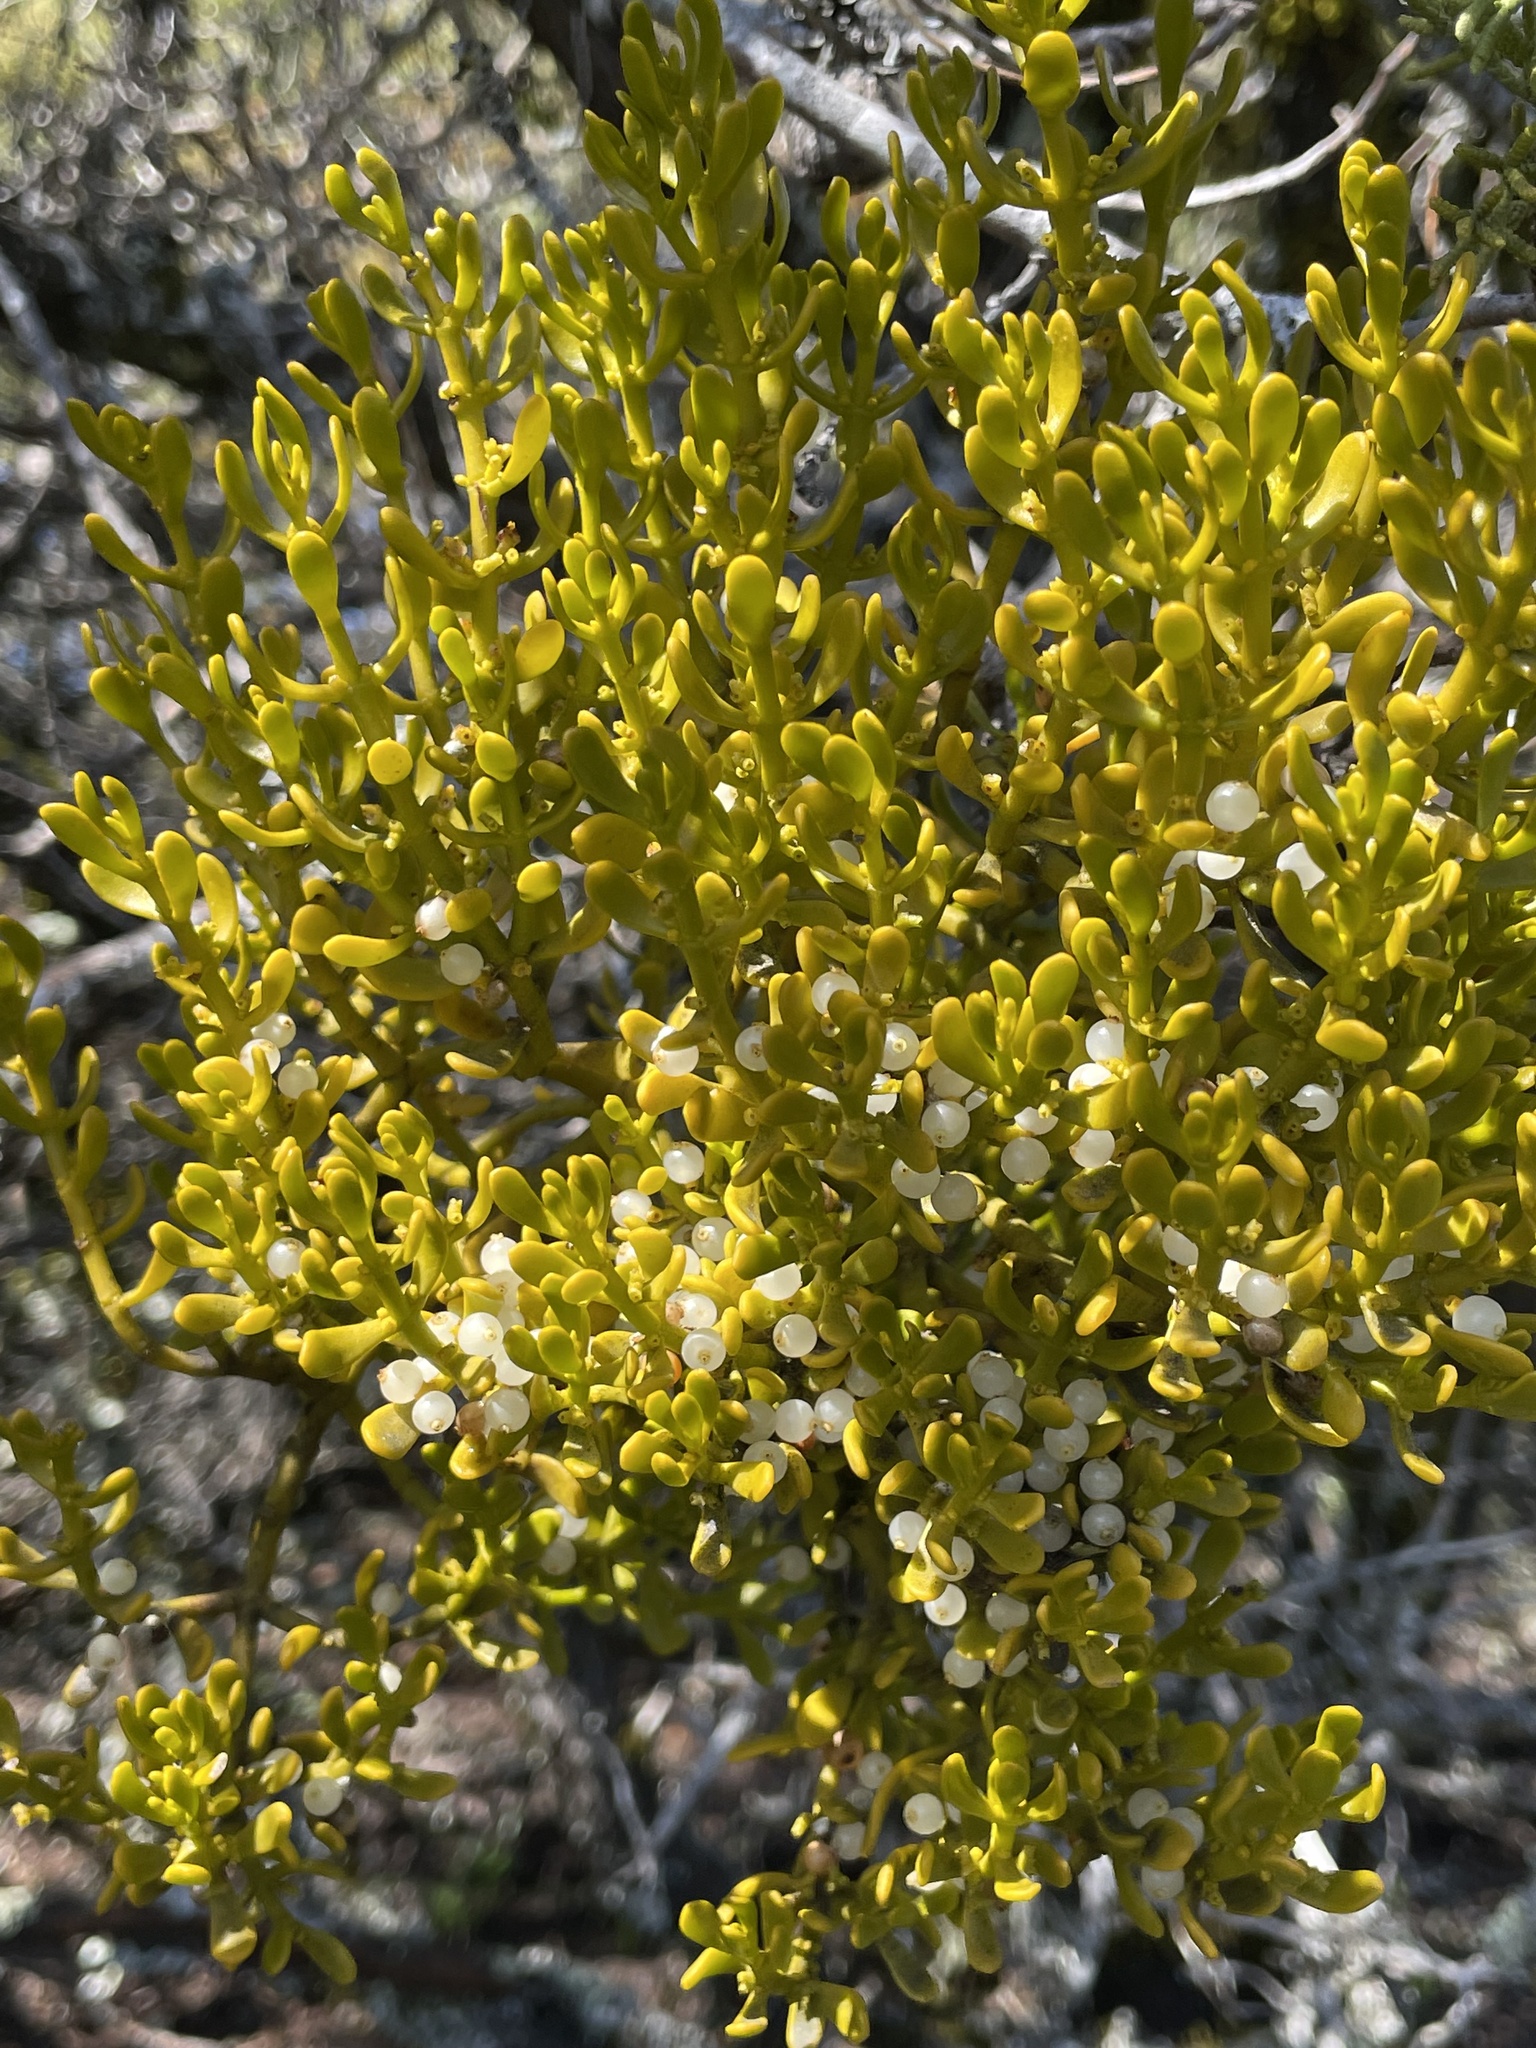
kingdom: Plantae
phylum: Tracheophyta
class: Magnoliopsida
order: Santalales
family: Viscaceae
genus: Phoradendron
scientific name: Phoradendron bolleanum
